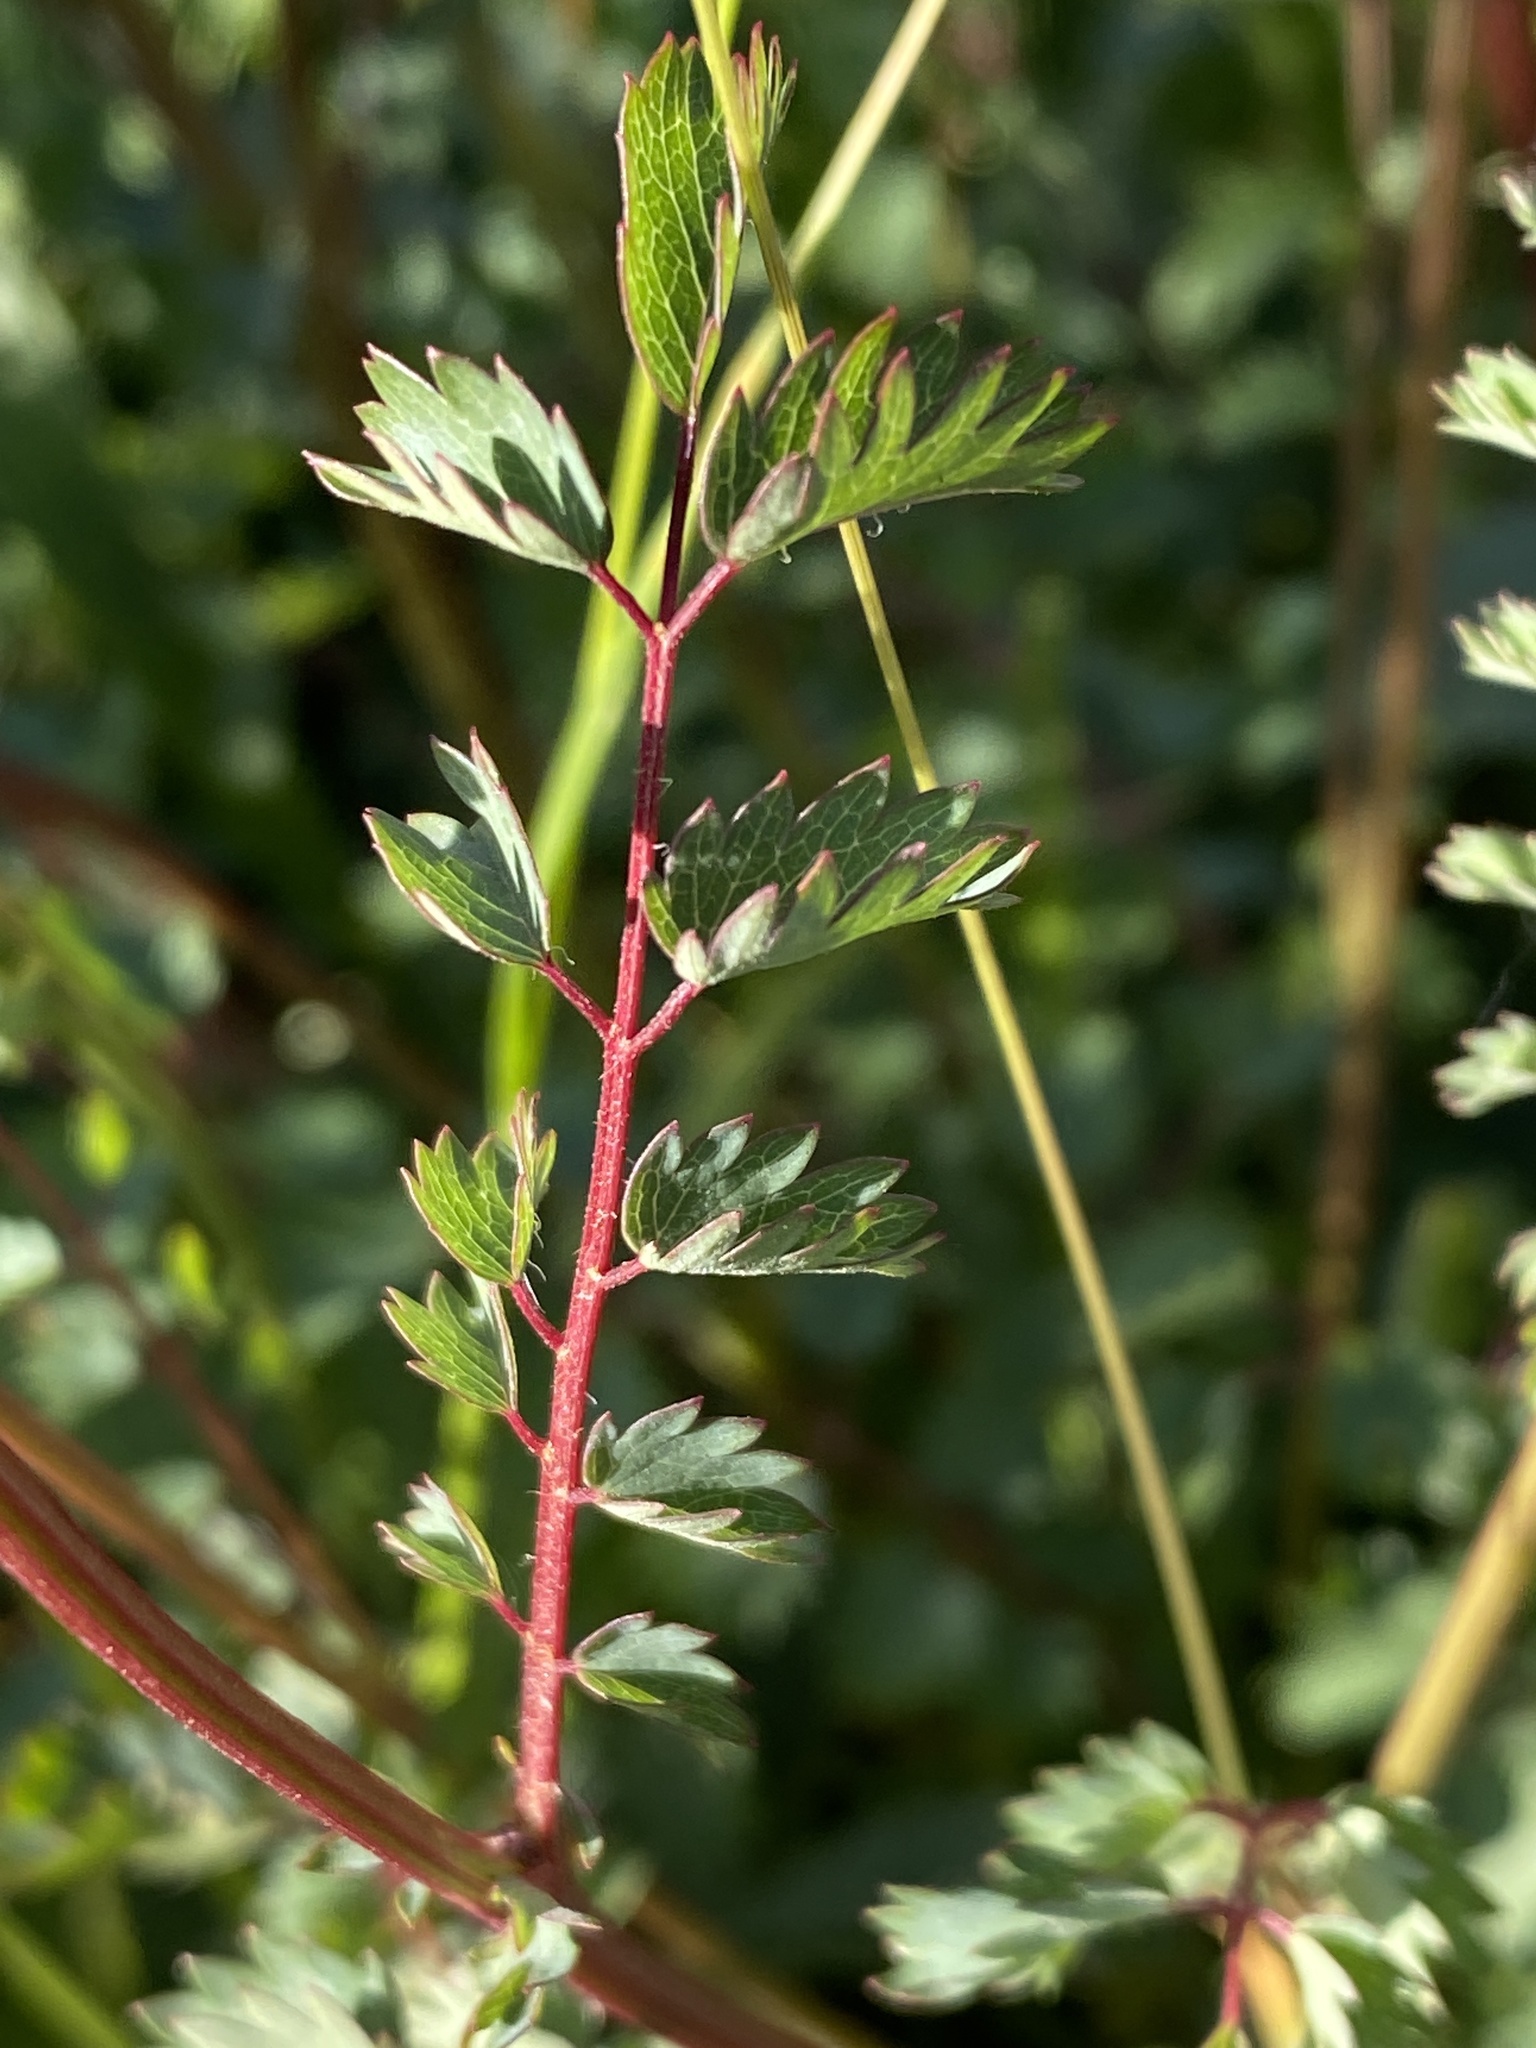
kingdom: Plantae
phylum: Tracheophyta
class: Magnoliopsida
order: Rosales
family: Rosaceae
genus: Poterium
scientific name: Poterium sanguisorba
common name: Salad burnet
